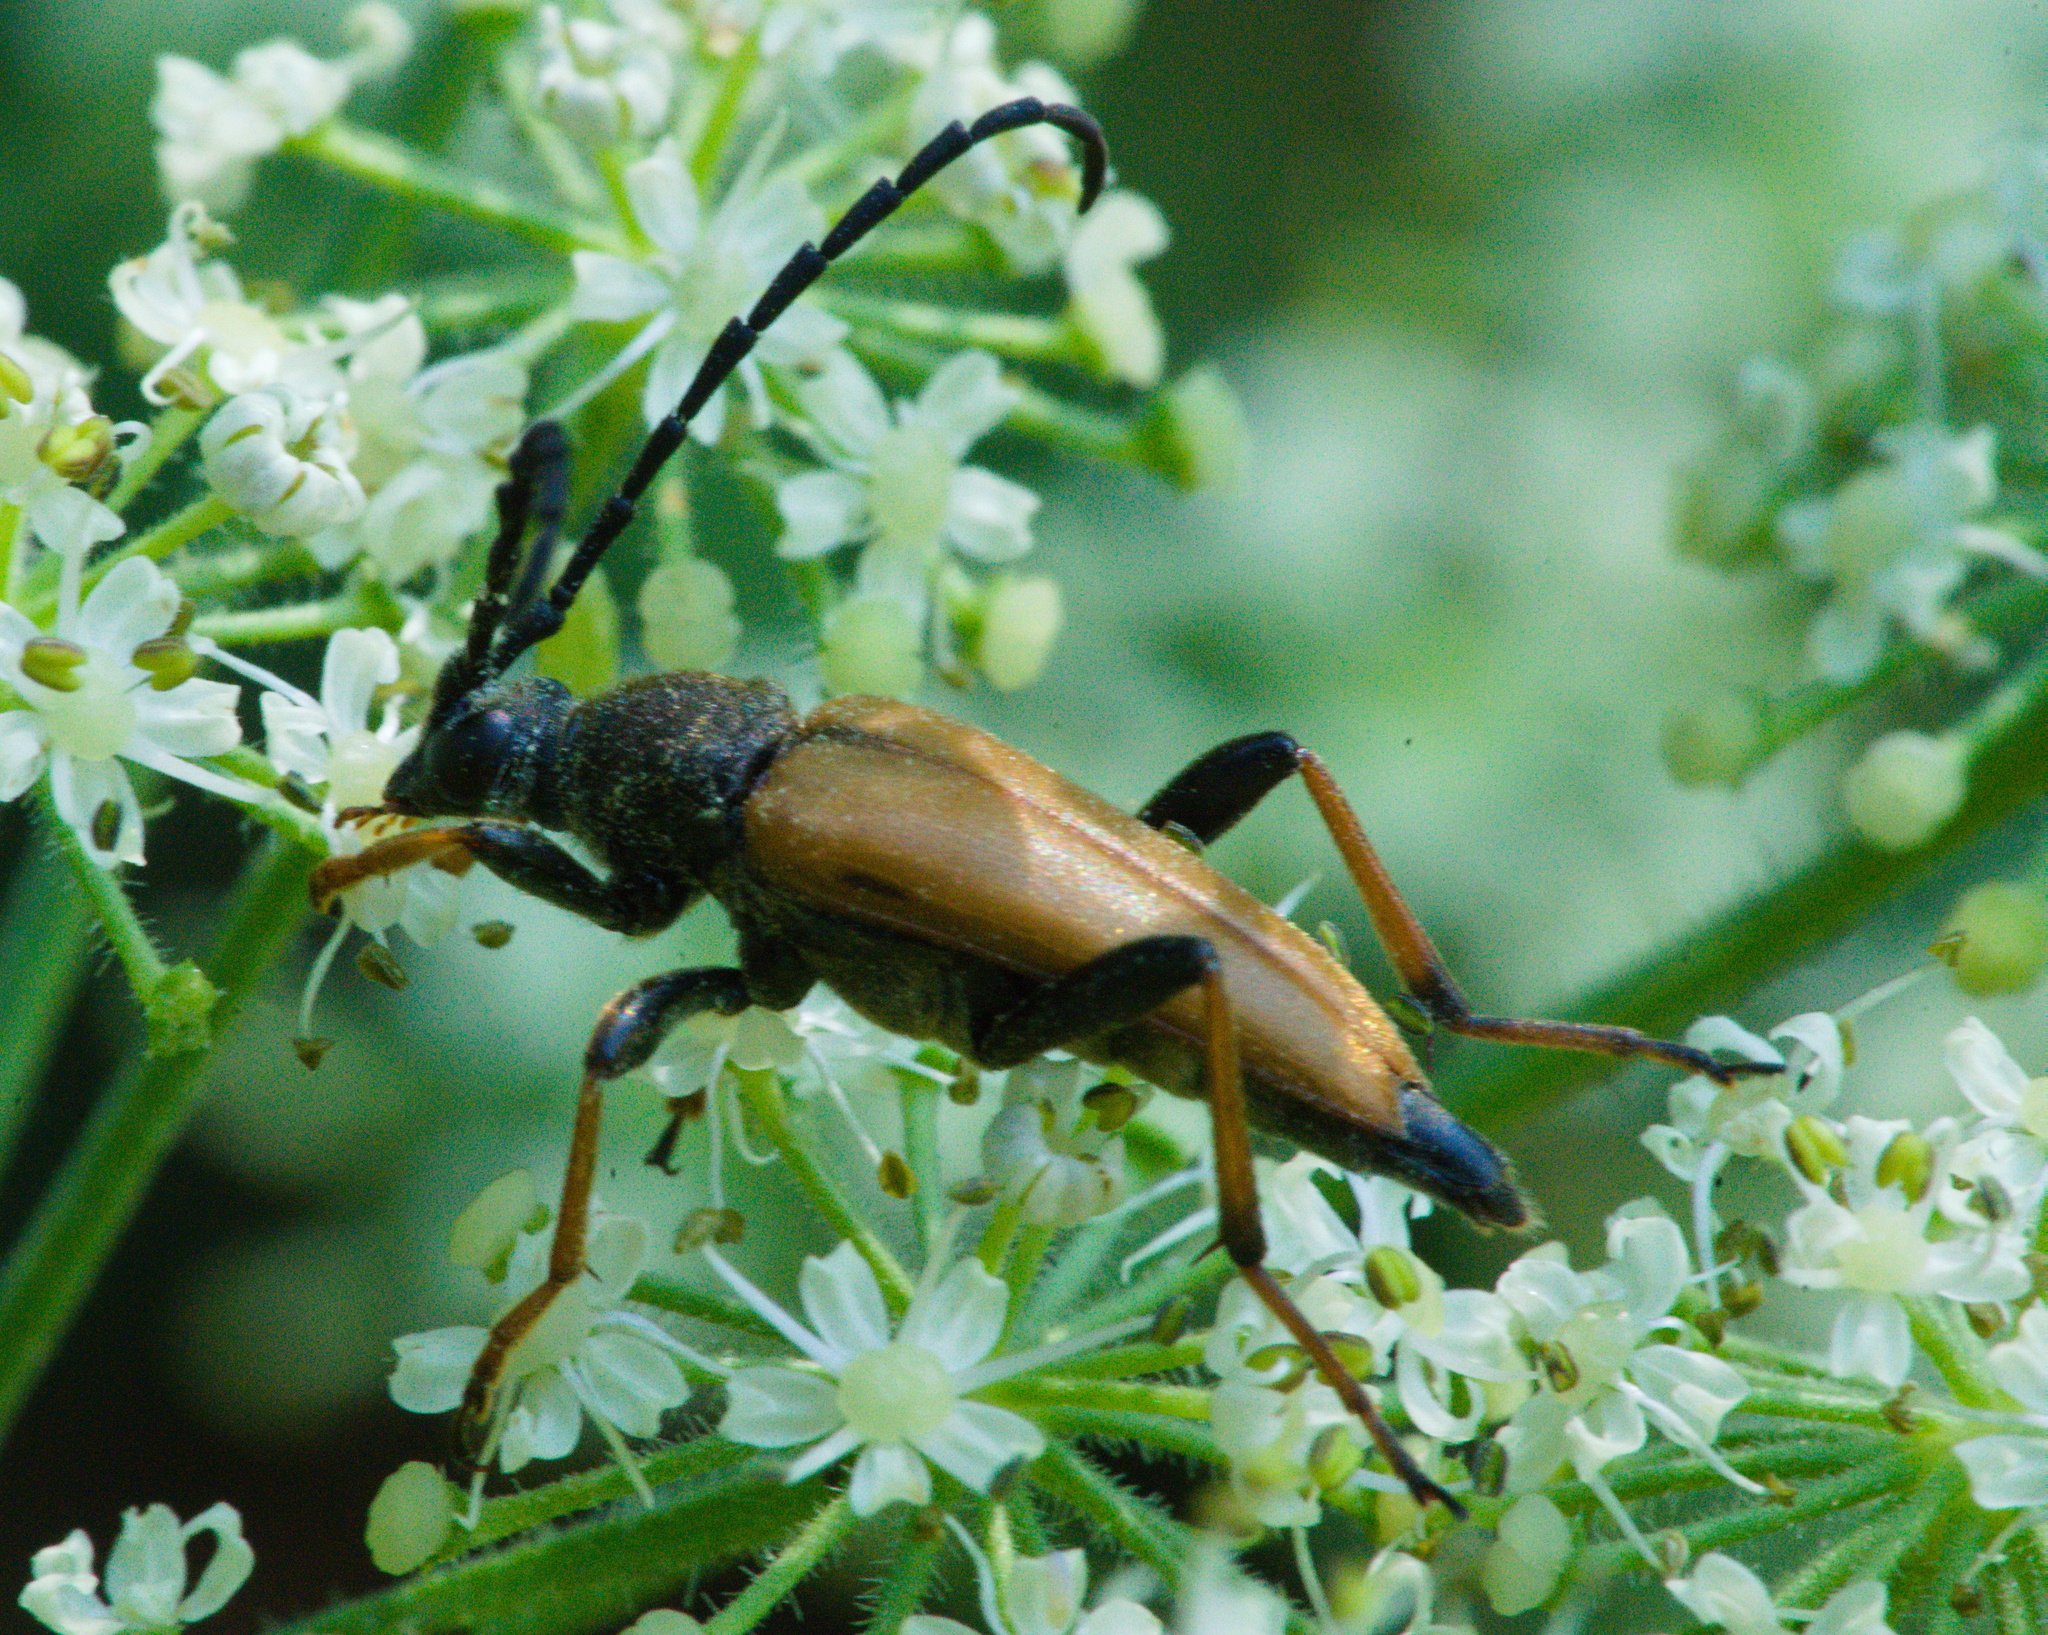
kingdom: Animalia
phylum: Arthropoda
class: Insecta
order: Coleoptera
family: Cerambycidae
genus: Stictoleptura
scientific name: Stictoleptura rubra
